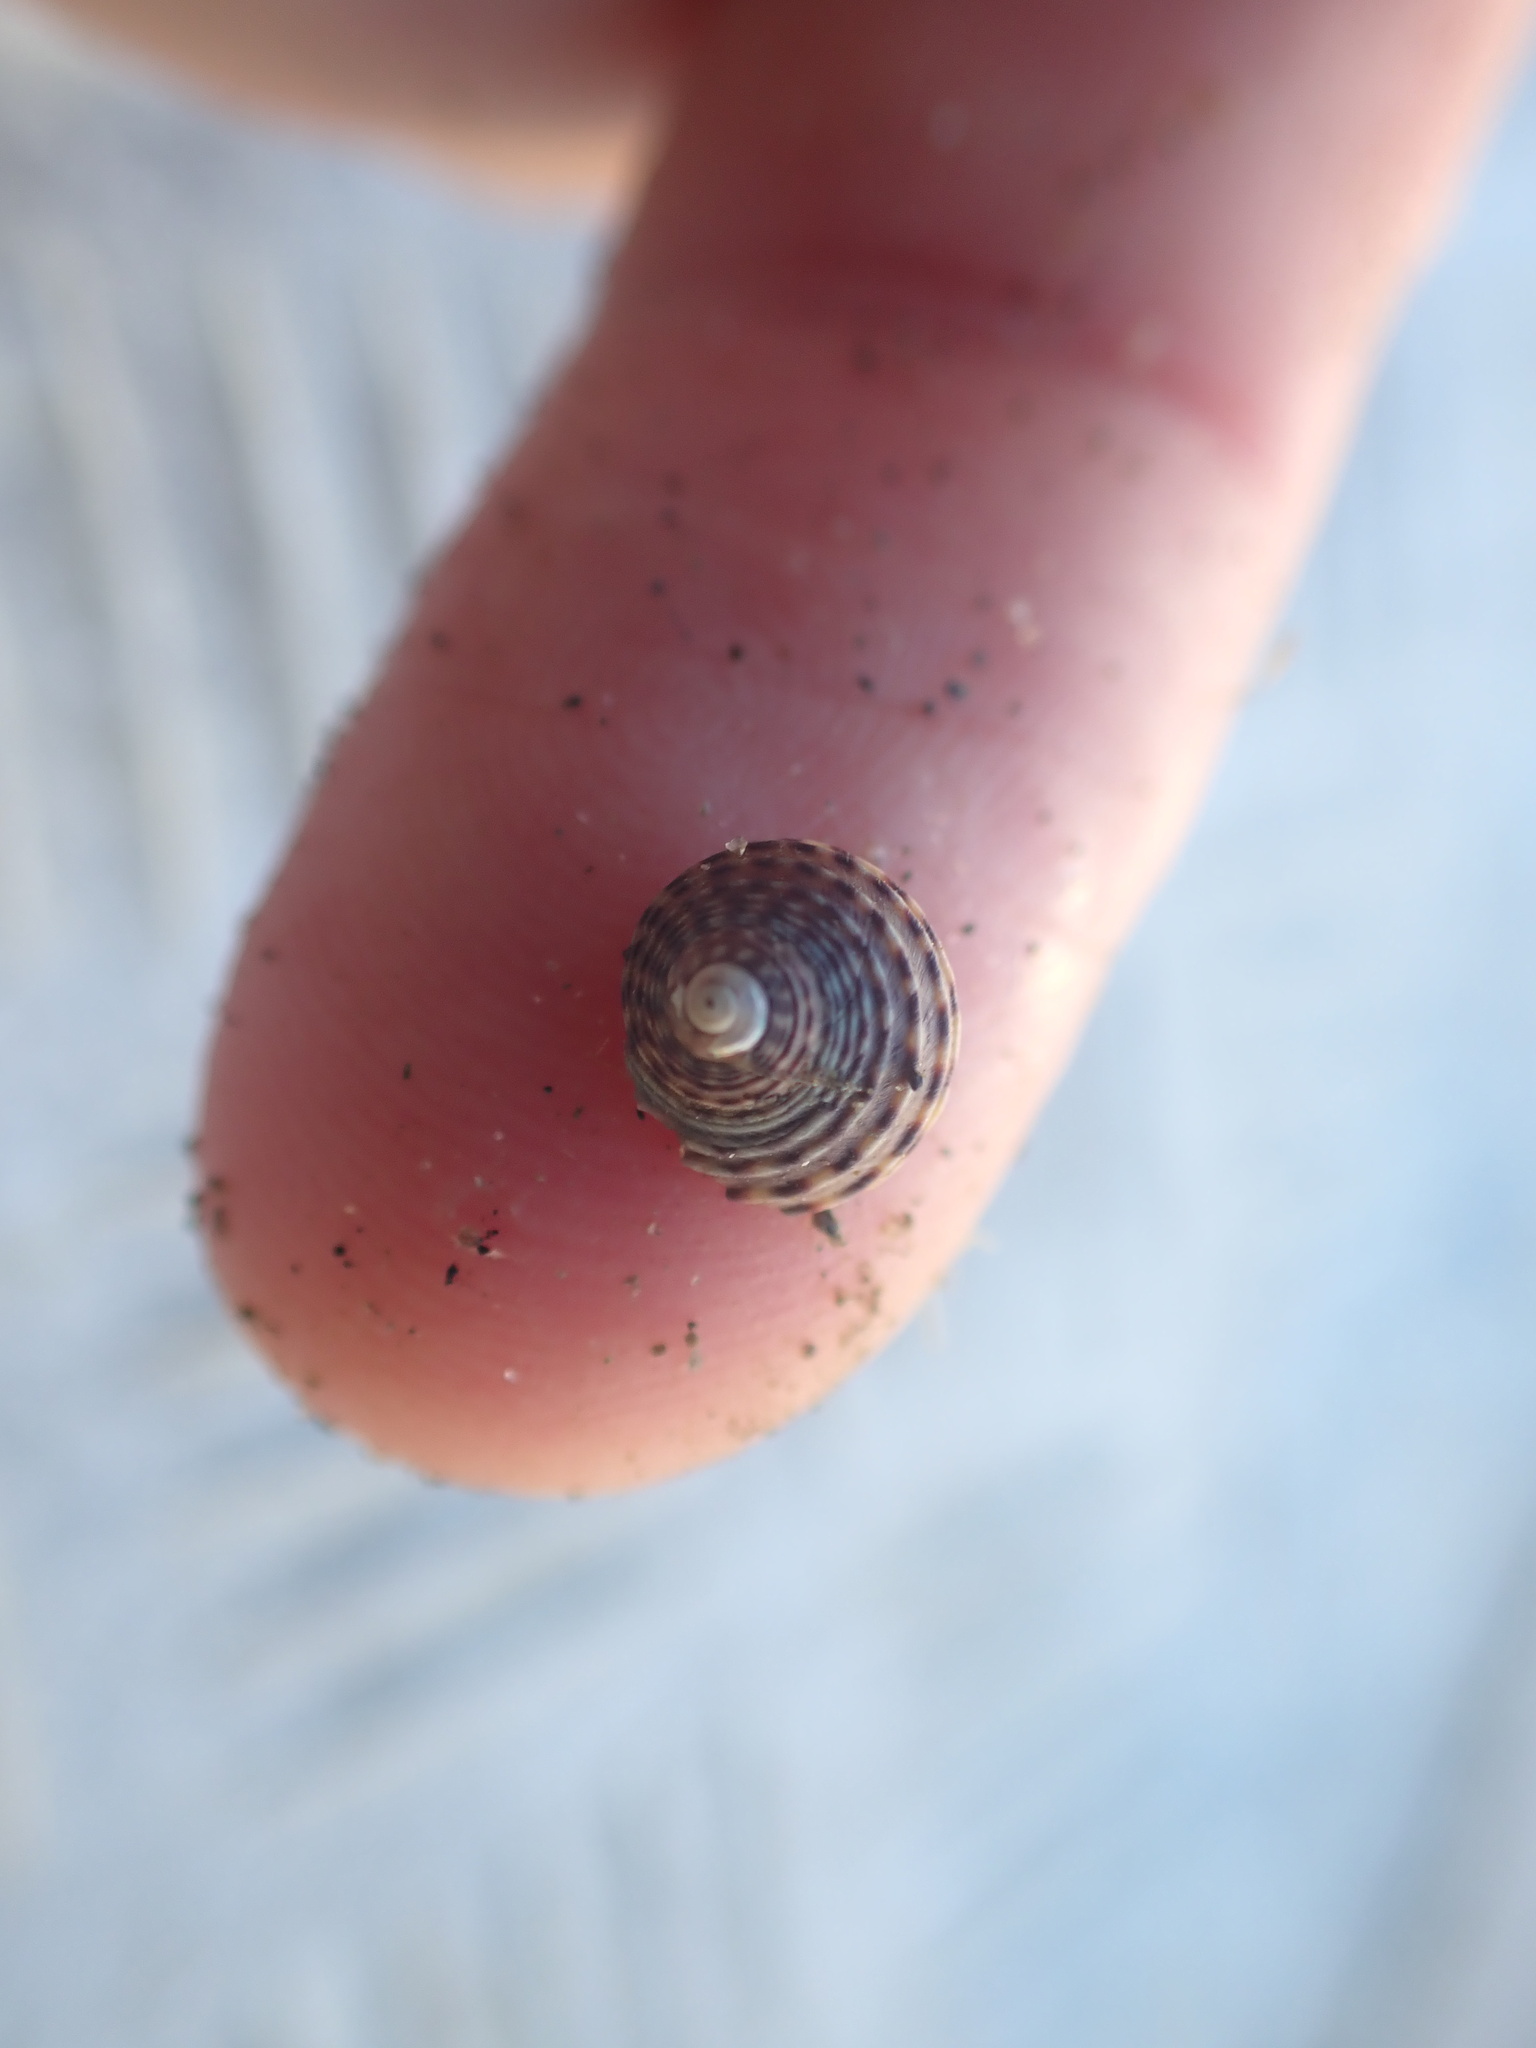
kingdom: Animalia
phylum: Mollusca
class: Gastropoda
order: Trochida
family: Trochidae
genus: Diloma
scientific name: Diloma subrostratum
